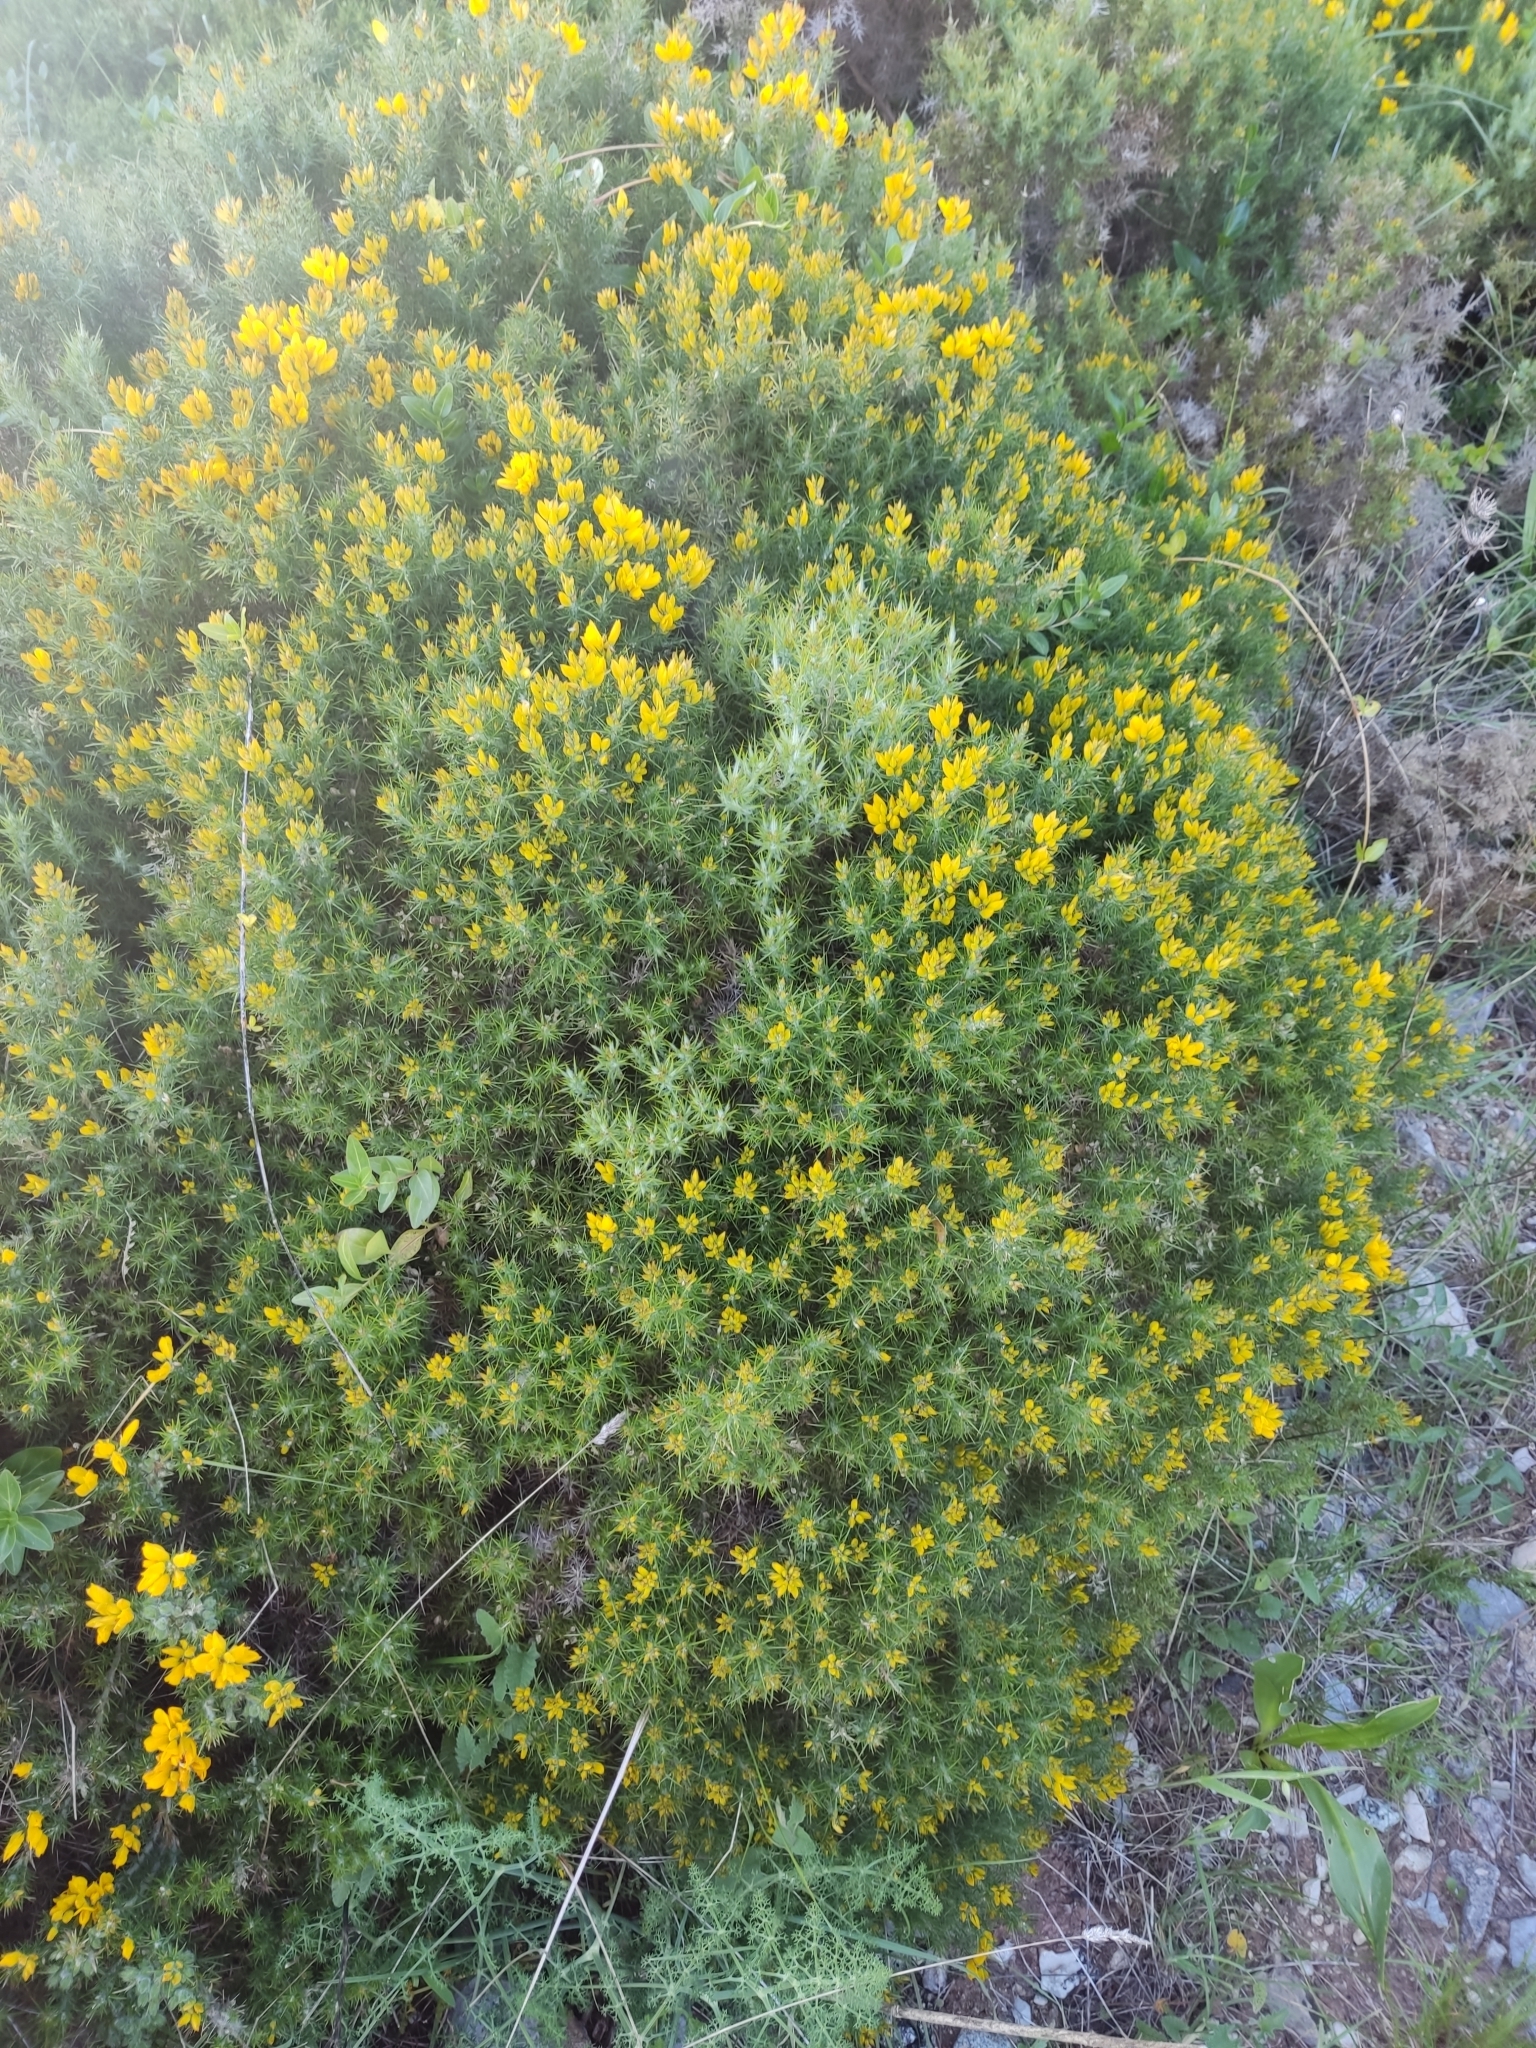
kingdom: Plantae
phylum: Tracheophyta
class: Magnoliopsida
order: Fabales
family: Fabaceae
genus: Ulex
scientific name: Ulex densus
